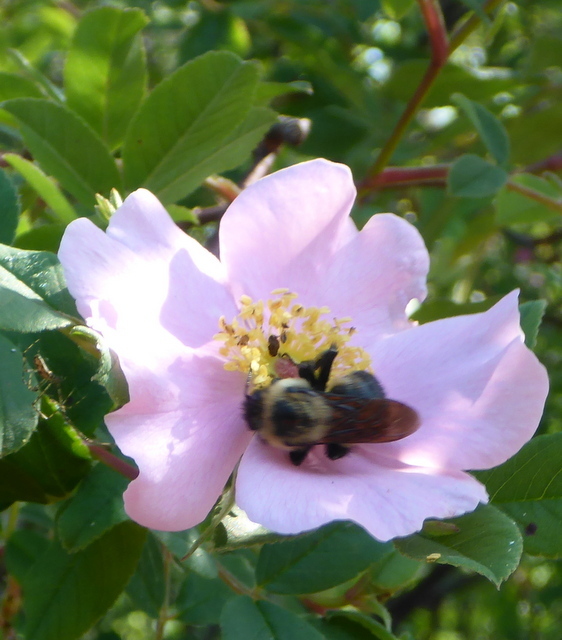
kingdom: Animalia
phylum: Arthropoda
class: Insecta
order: Hymenoptera
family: Apidae
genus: Bombus
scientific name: Bombus griseocollis
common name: Brown-belted bumble bee
